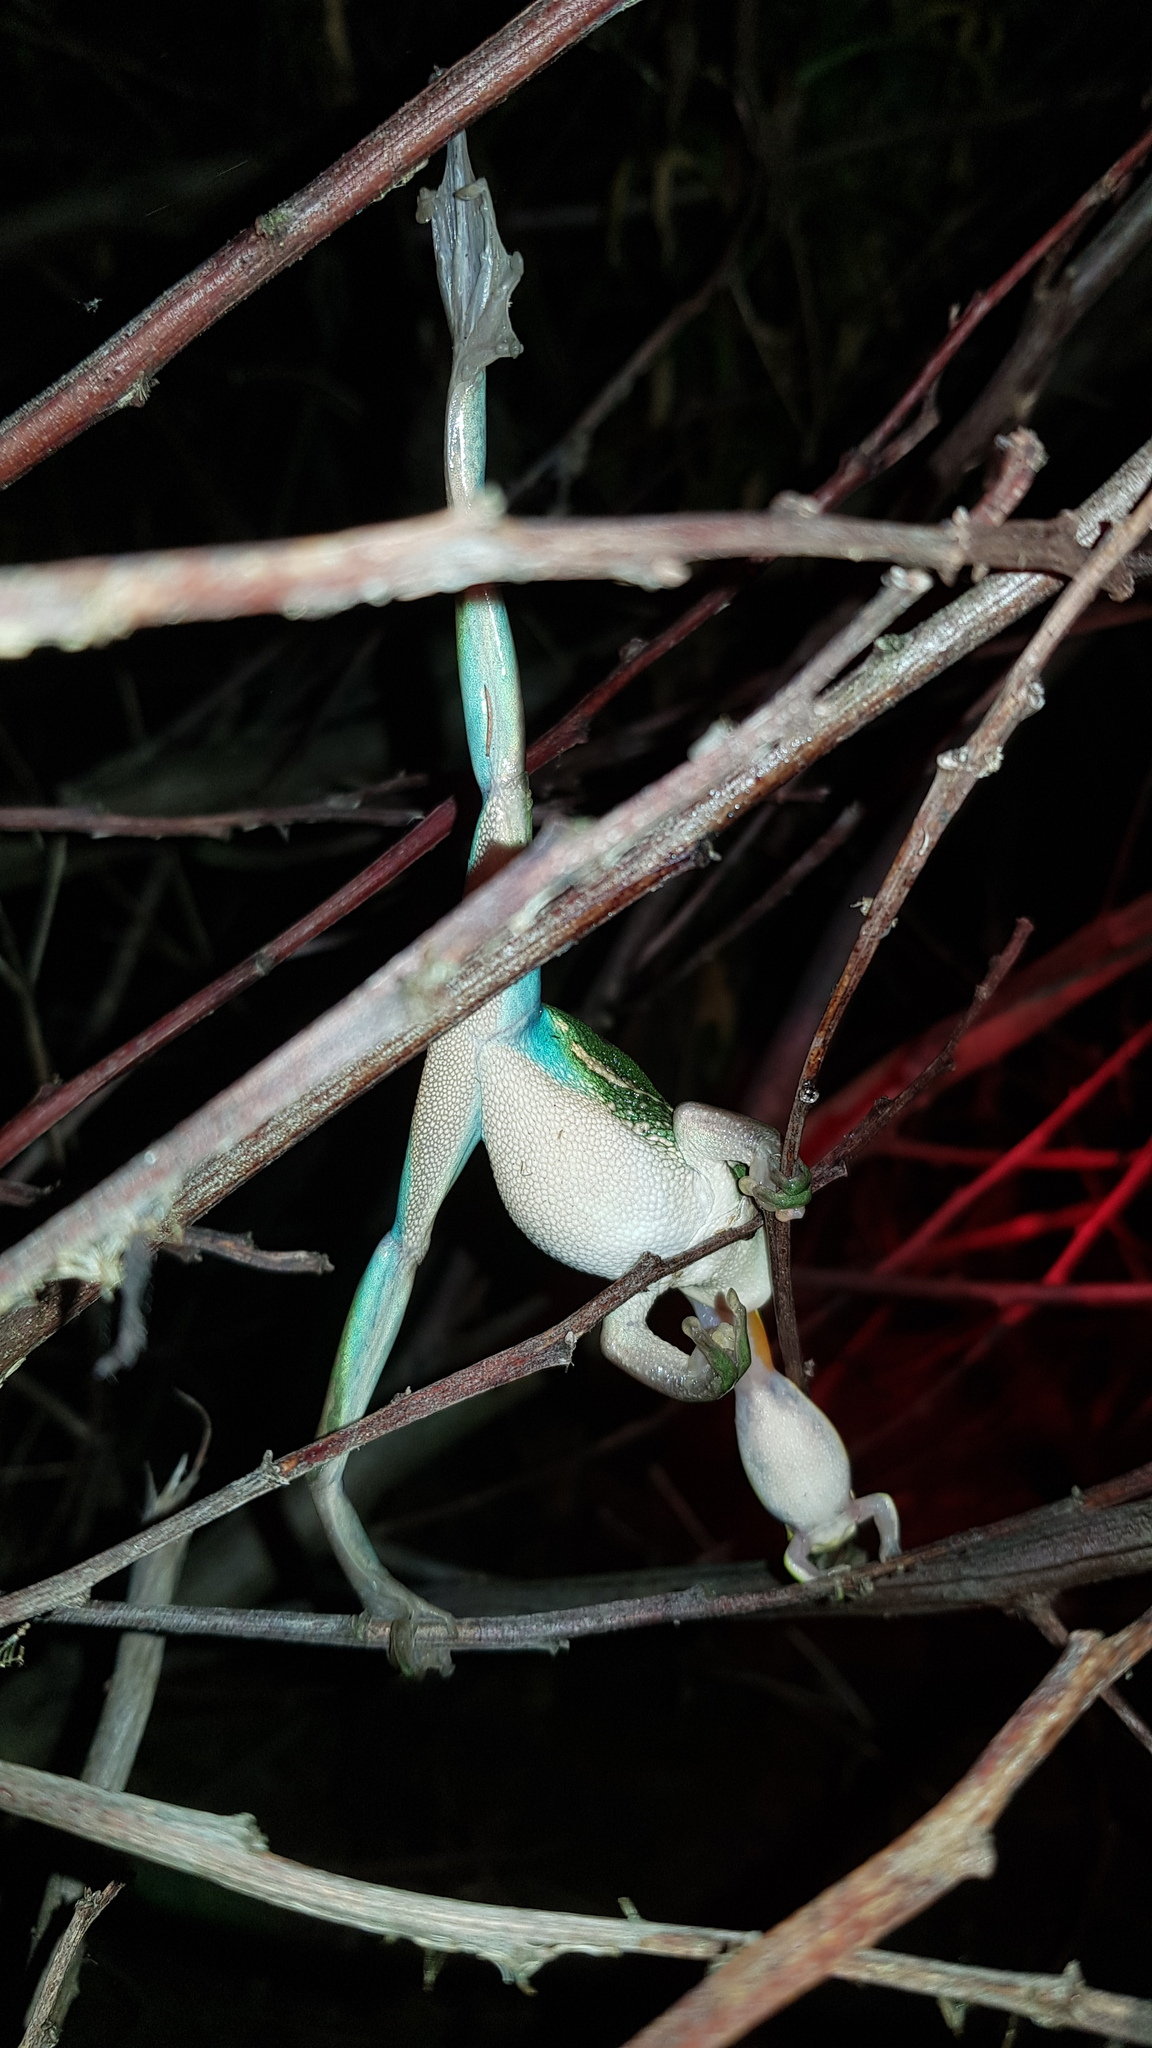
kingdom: Animalia
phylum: Chordata
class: Amphibia
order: Anura
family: Pelodryadidae
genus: Ranoidea
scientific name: Ranoidea aurea
